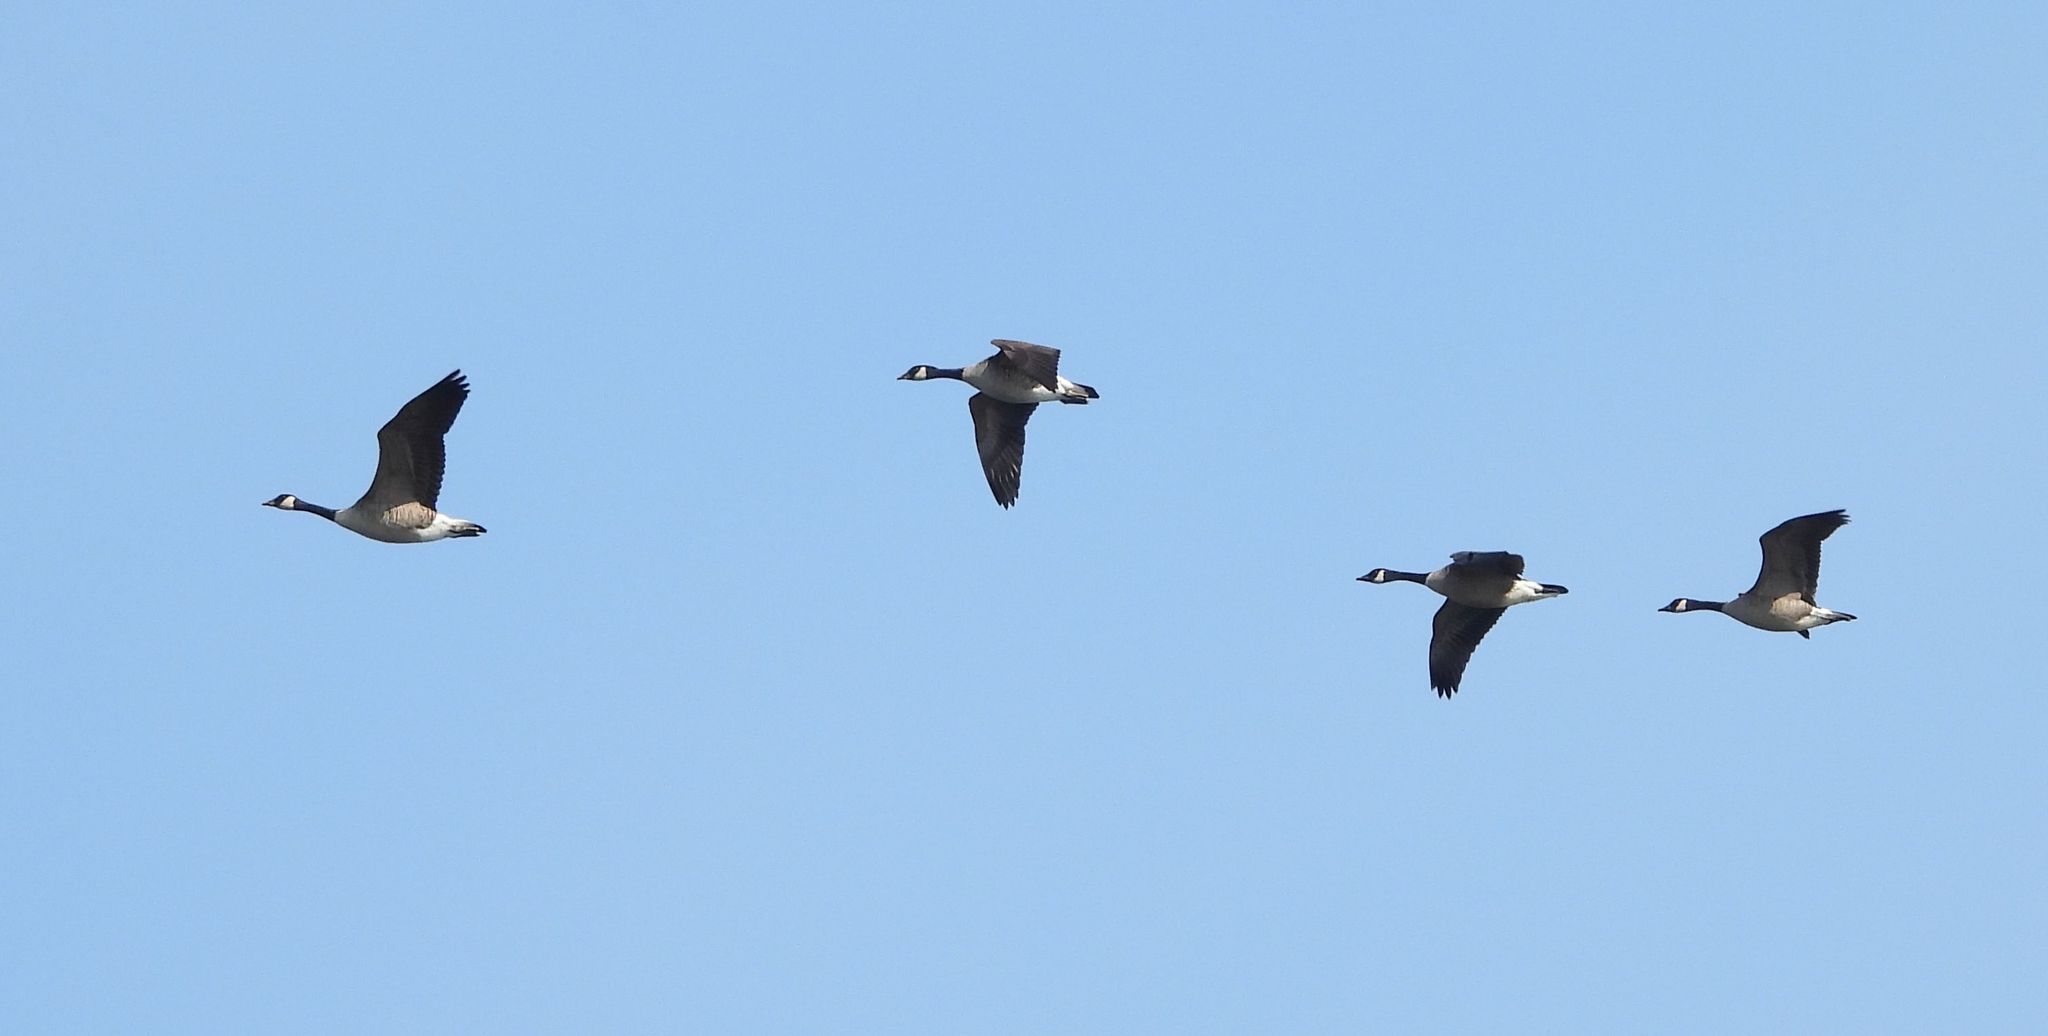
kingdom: Animalia
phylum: Chordata
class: Aves
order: Anseriformes
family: Anatidae
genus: Branta
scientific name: Branta canadensis
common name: Canada goose
